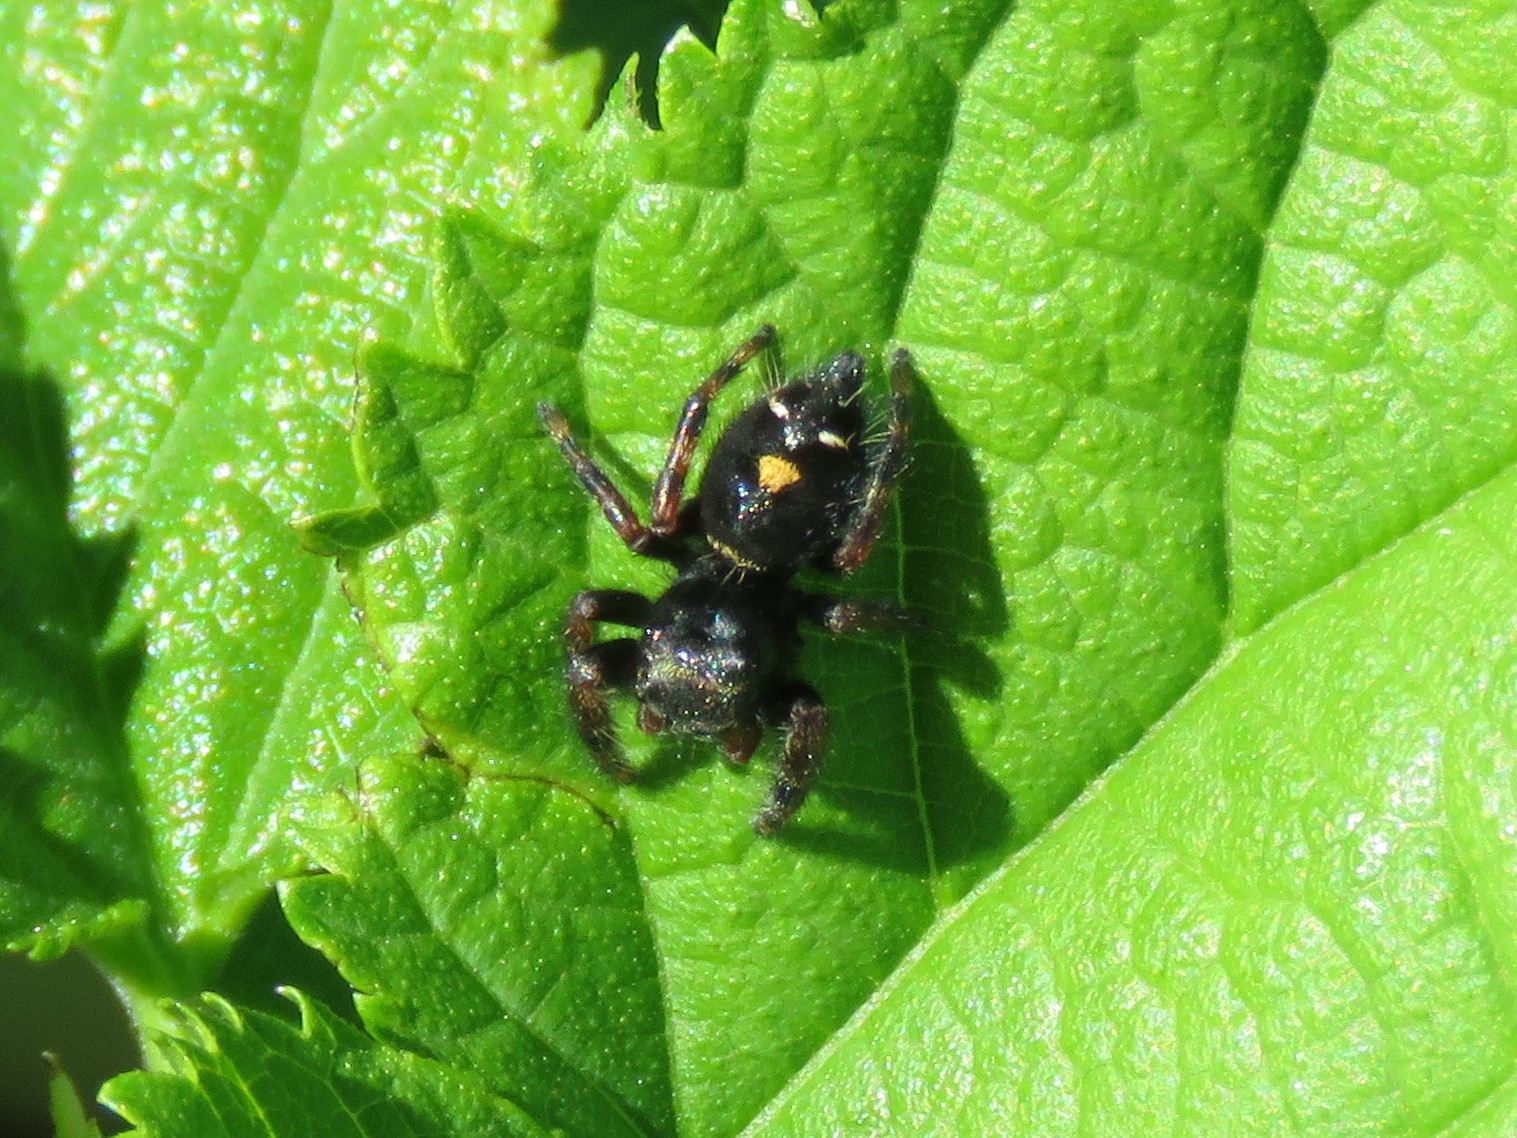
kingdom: Animalia
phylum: Arthropoda
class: Arachnida
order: Araneae
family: Salticidae
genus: Phidippus
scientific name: Phidippus audax
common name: Bold jumper
